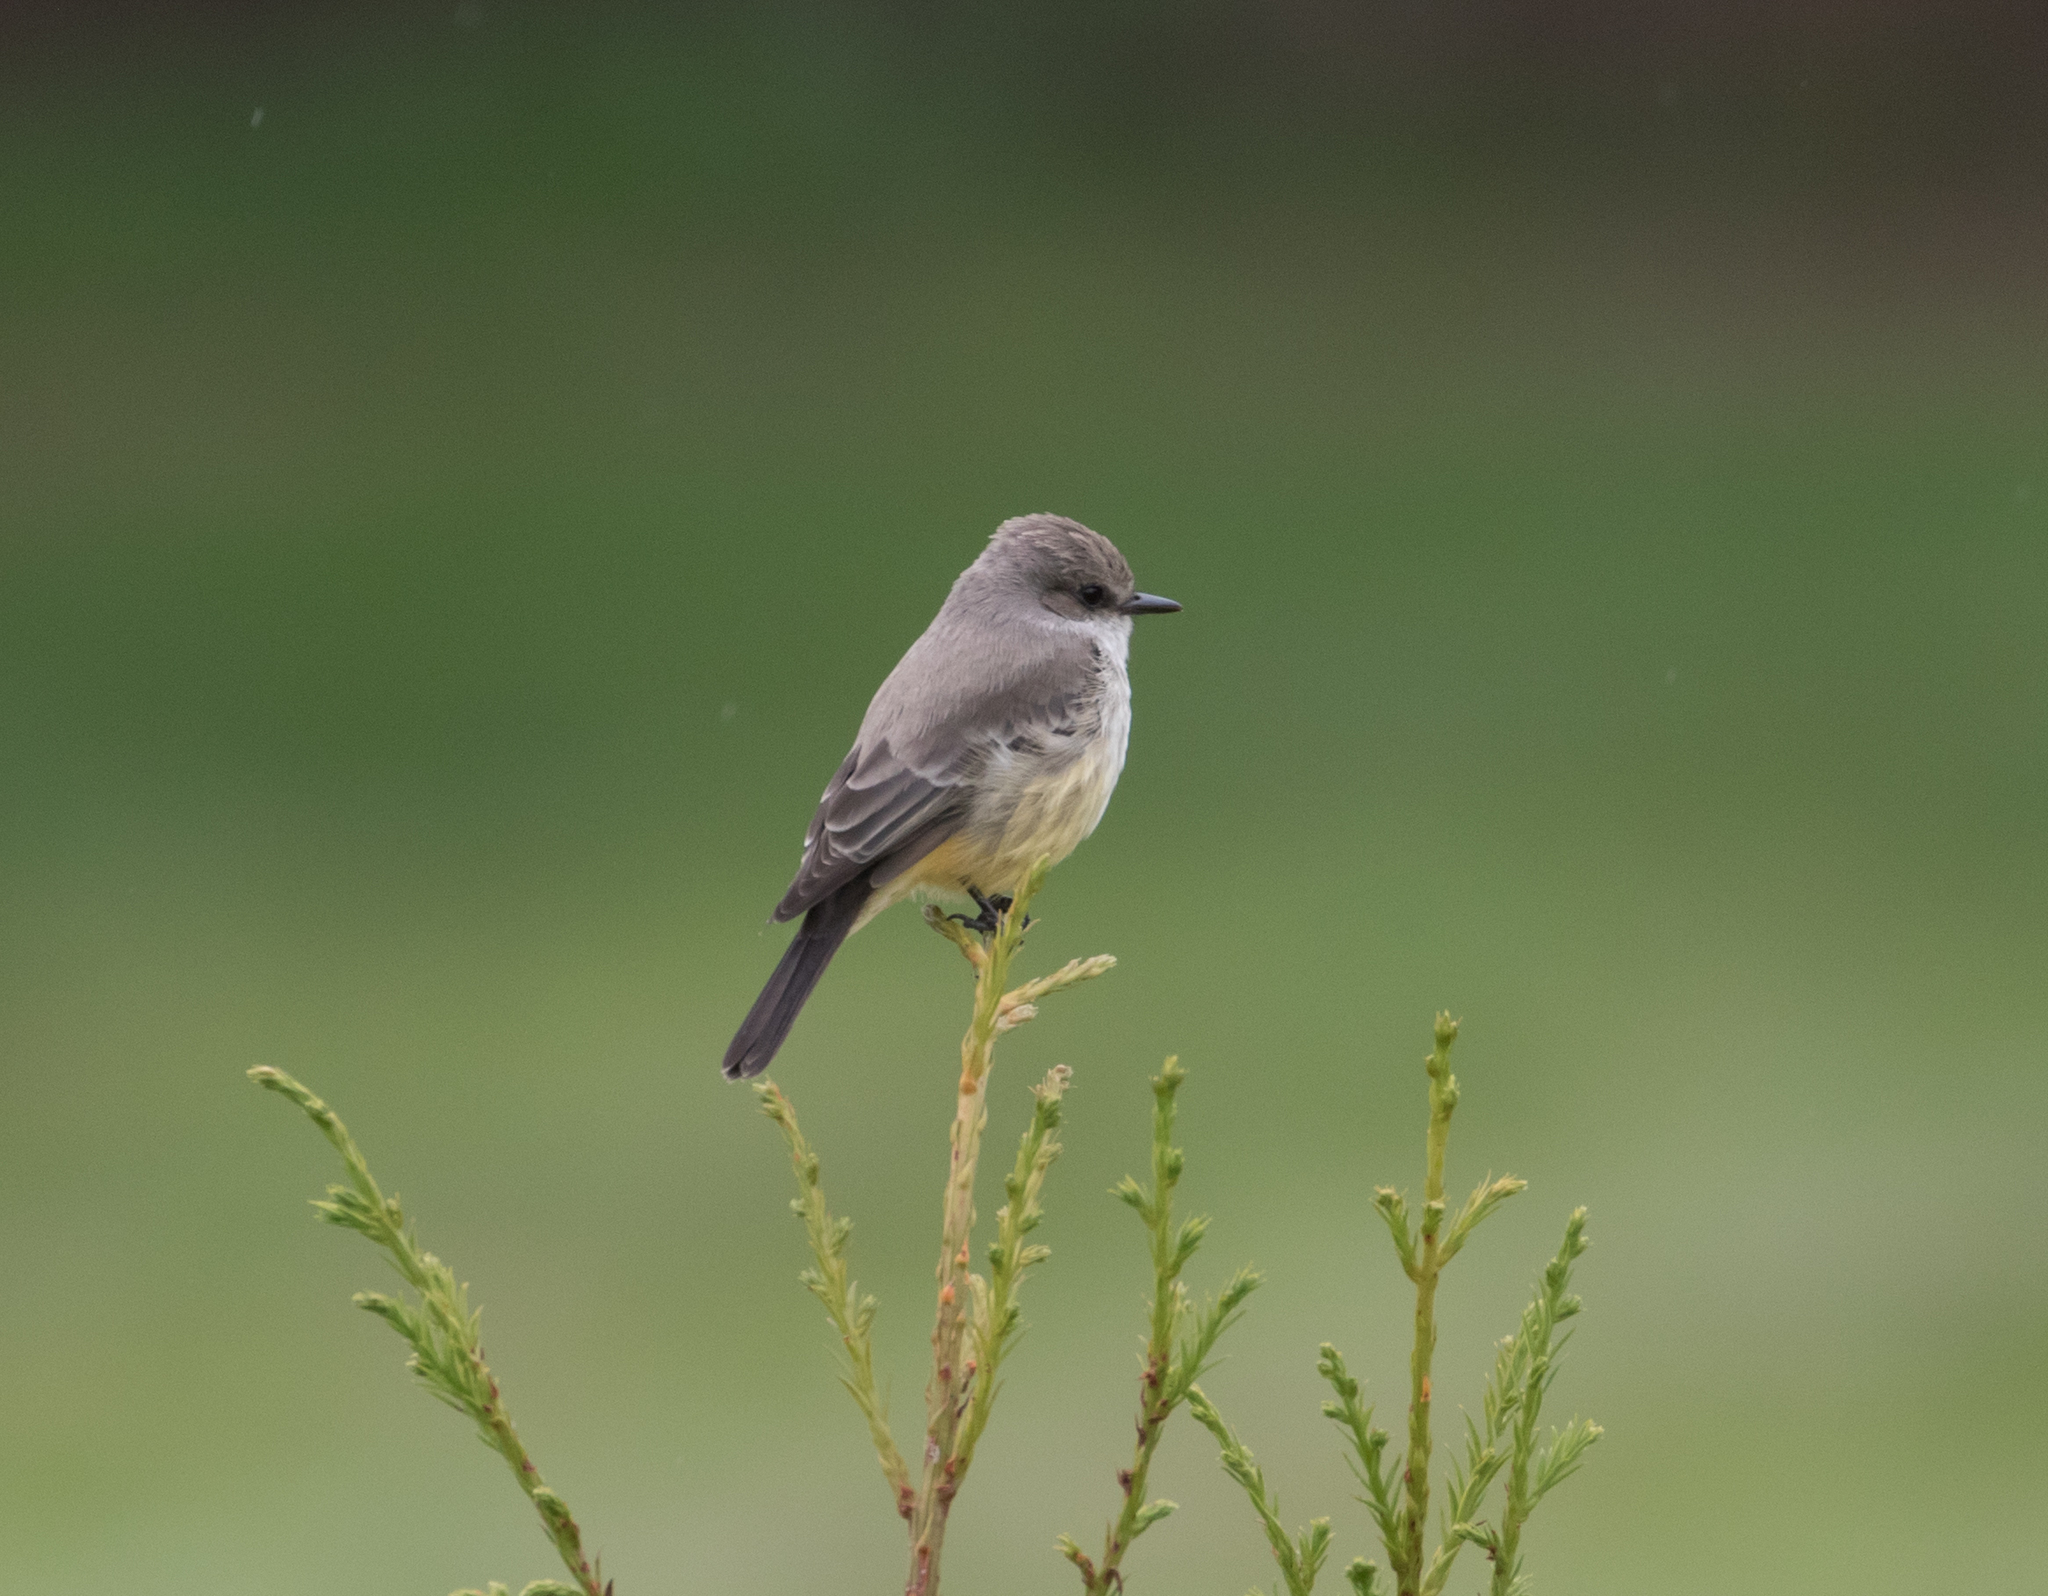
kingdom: Animalia
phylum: Chordata
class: Aves
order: Passeriformes
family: Tyrannidae
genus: Pyrocephalus
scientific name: Pyrocephalus rubinus
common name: Vermilion flycatcher
